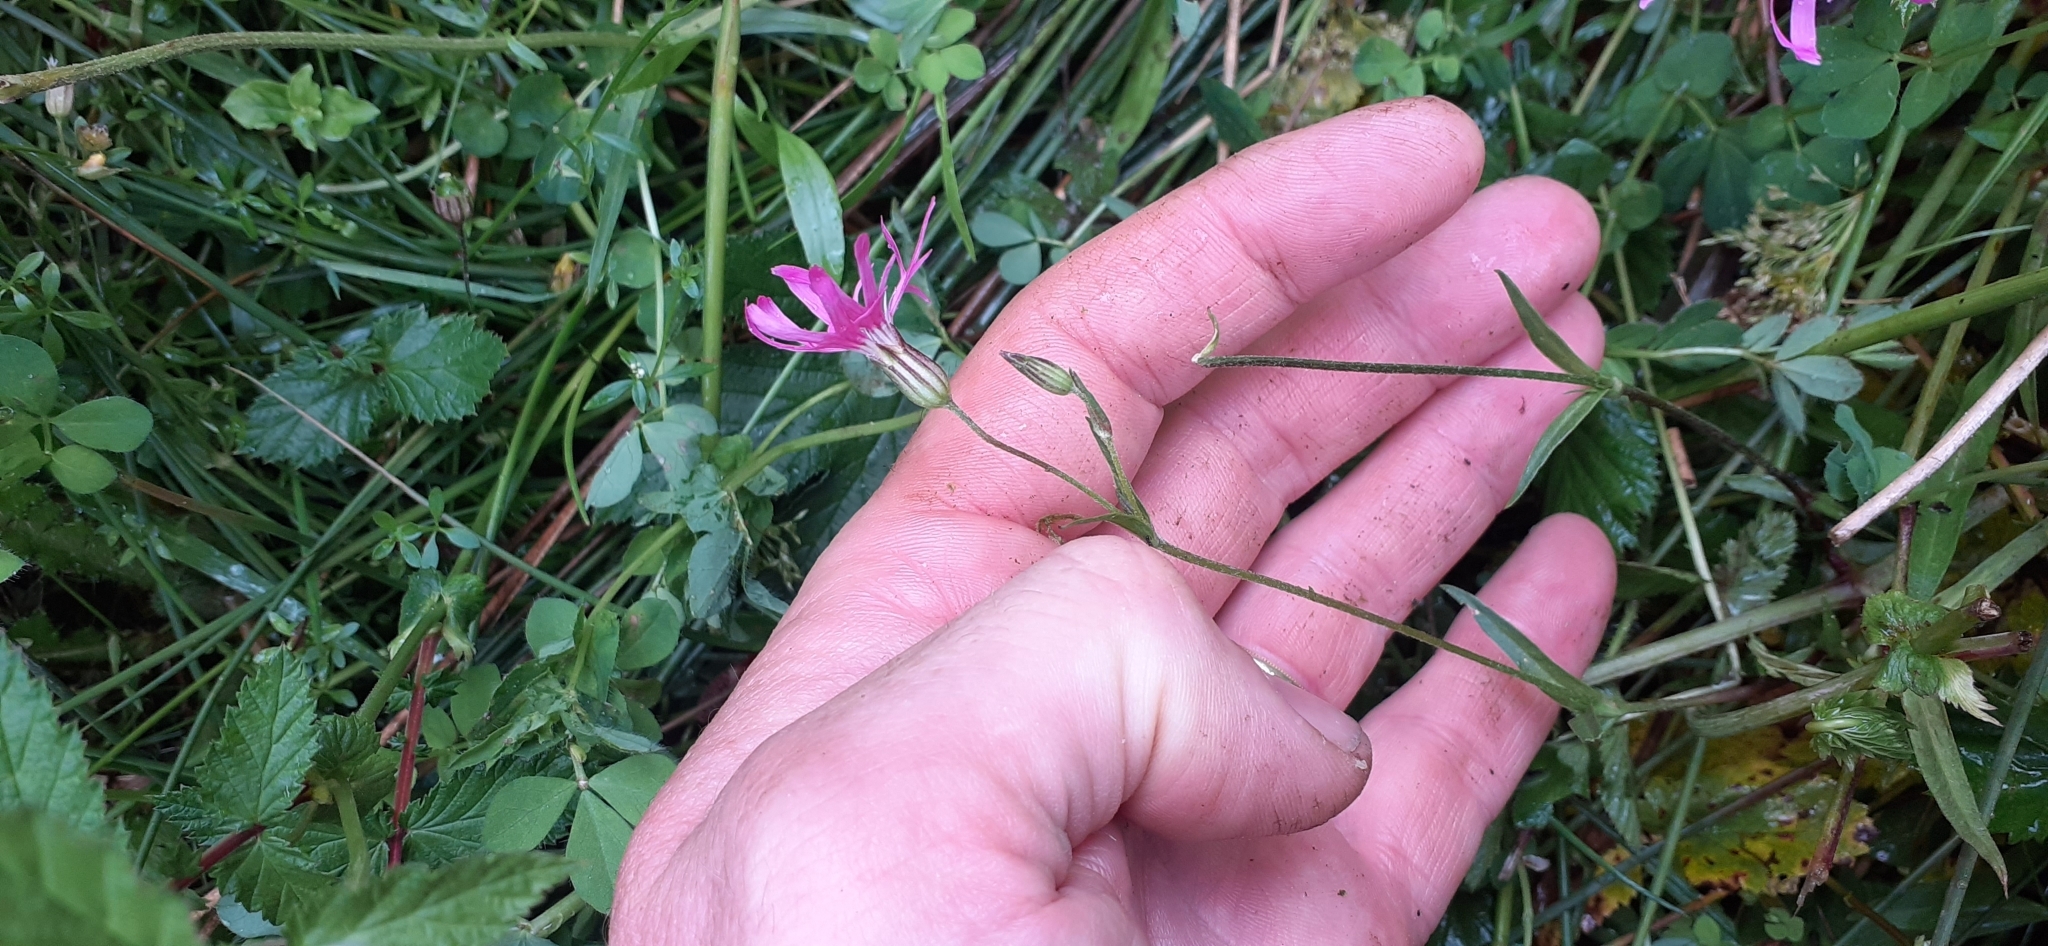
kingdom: Plantae
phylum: Tracheophyta
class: Magnoliopsida
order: Caryophyllales
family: Caryophyllaceae
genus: Silene
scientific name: Silene flos-cuculi
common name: Ragged-robin
